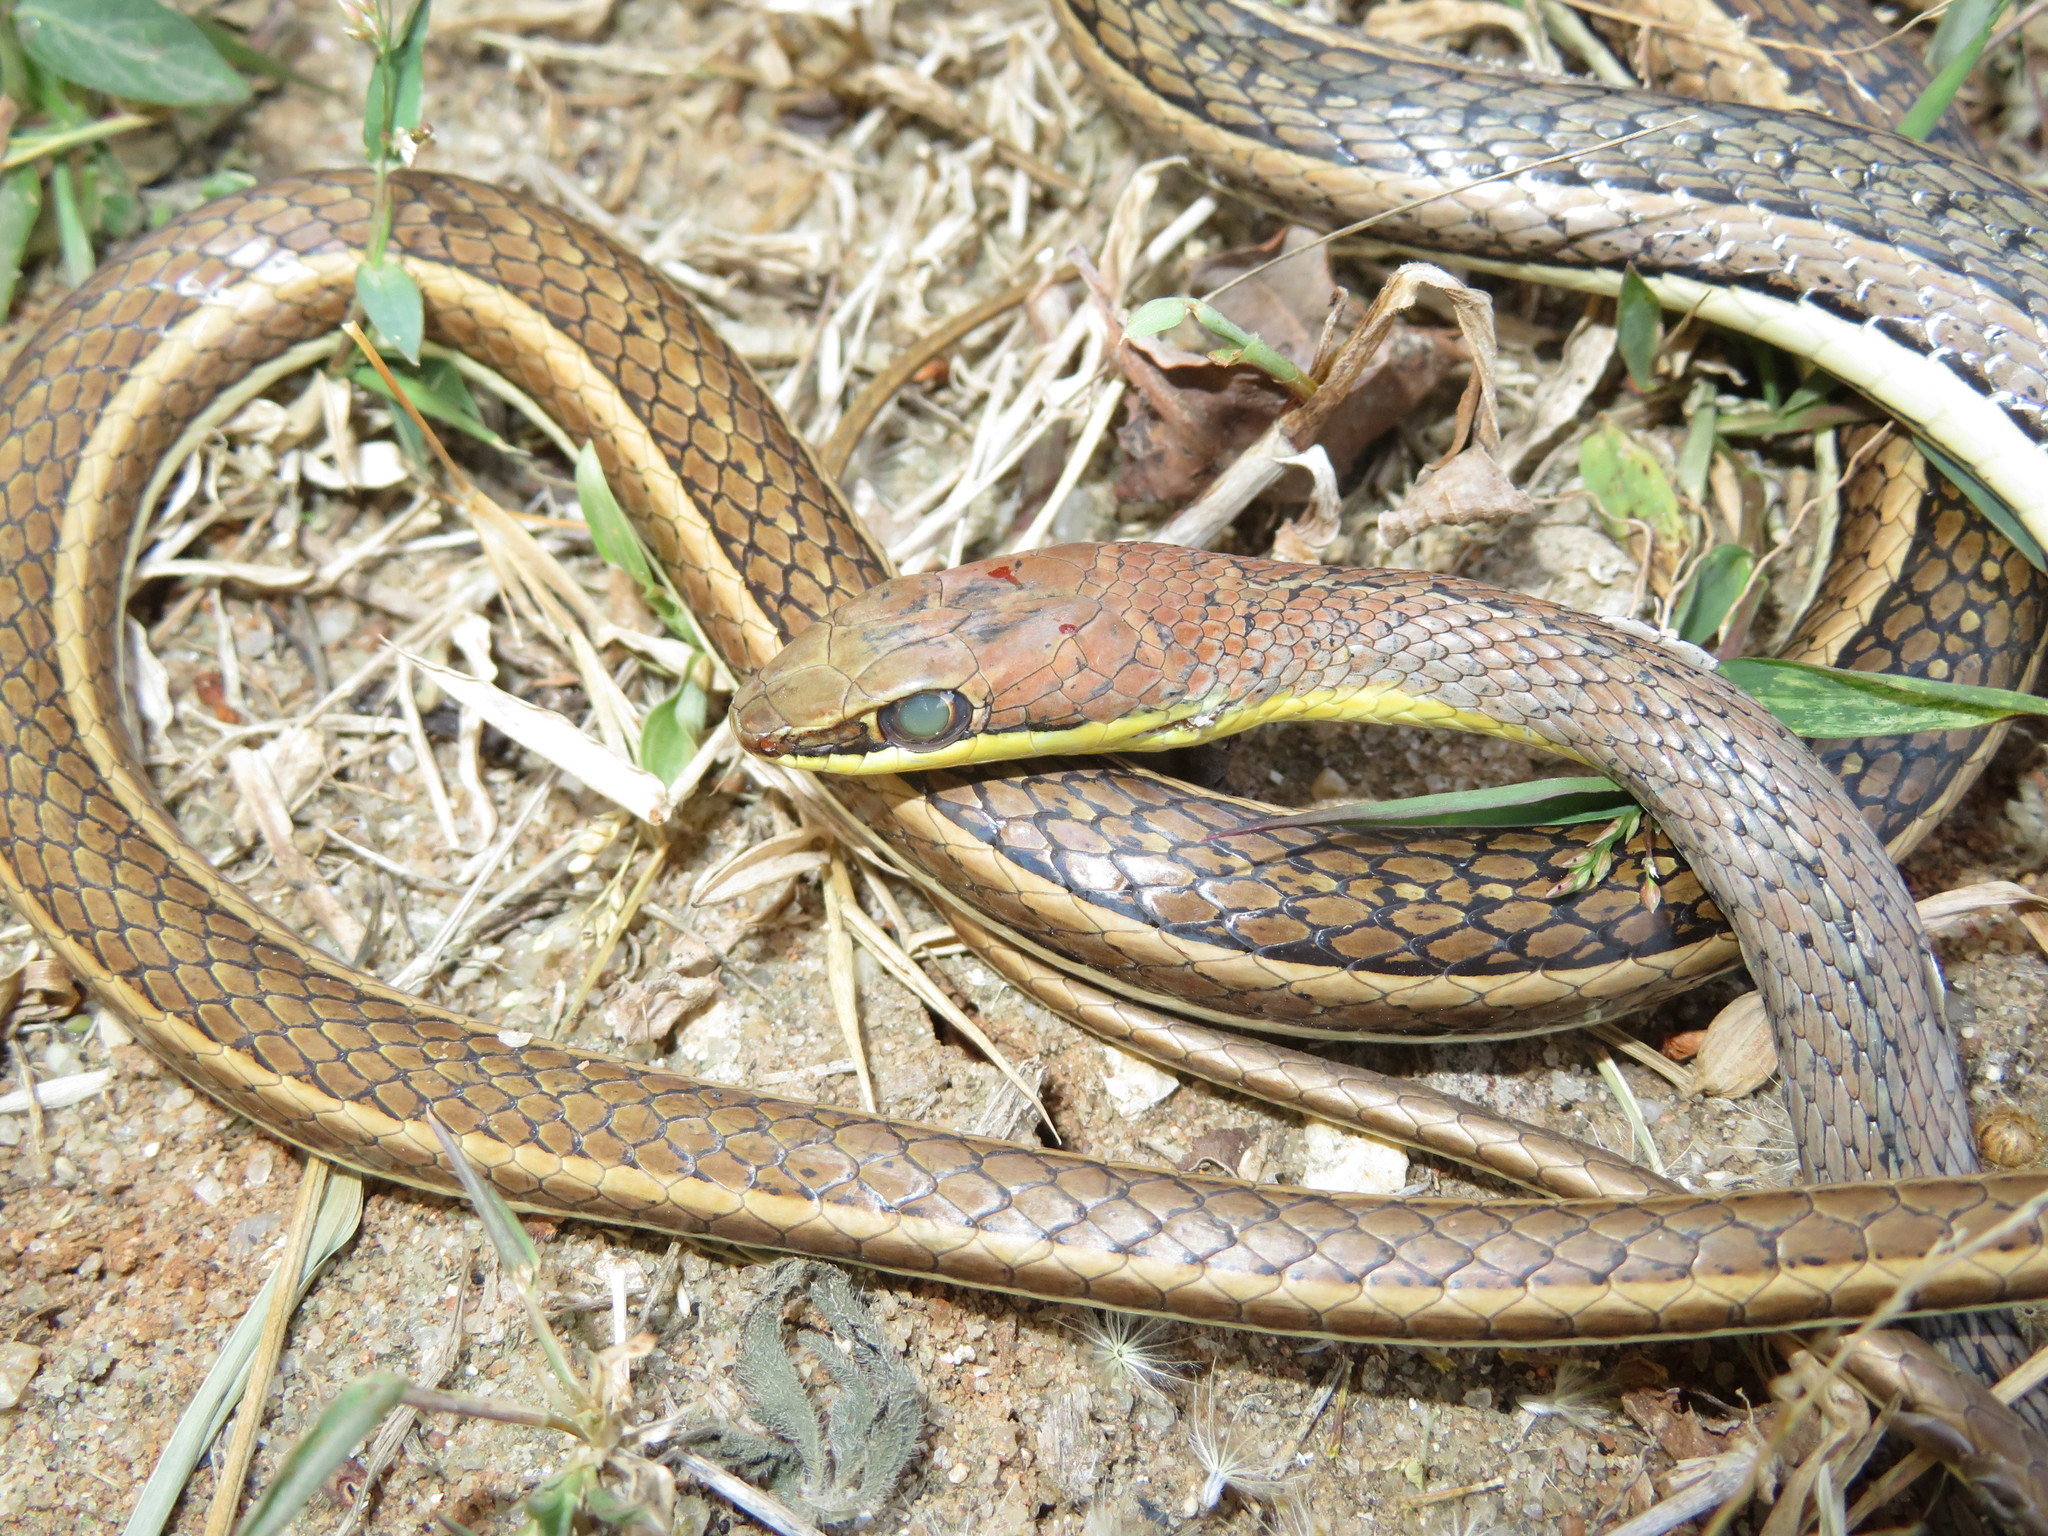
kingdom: Animalia
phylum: Chordata
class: Squamata
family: Psammophiidae
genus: Psammophis
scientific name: Psammophis orientalis
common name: Eastern stripe-bellied sand snake
